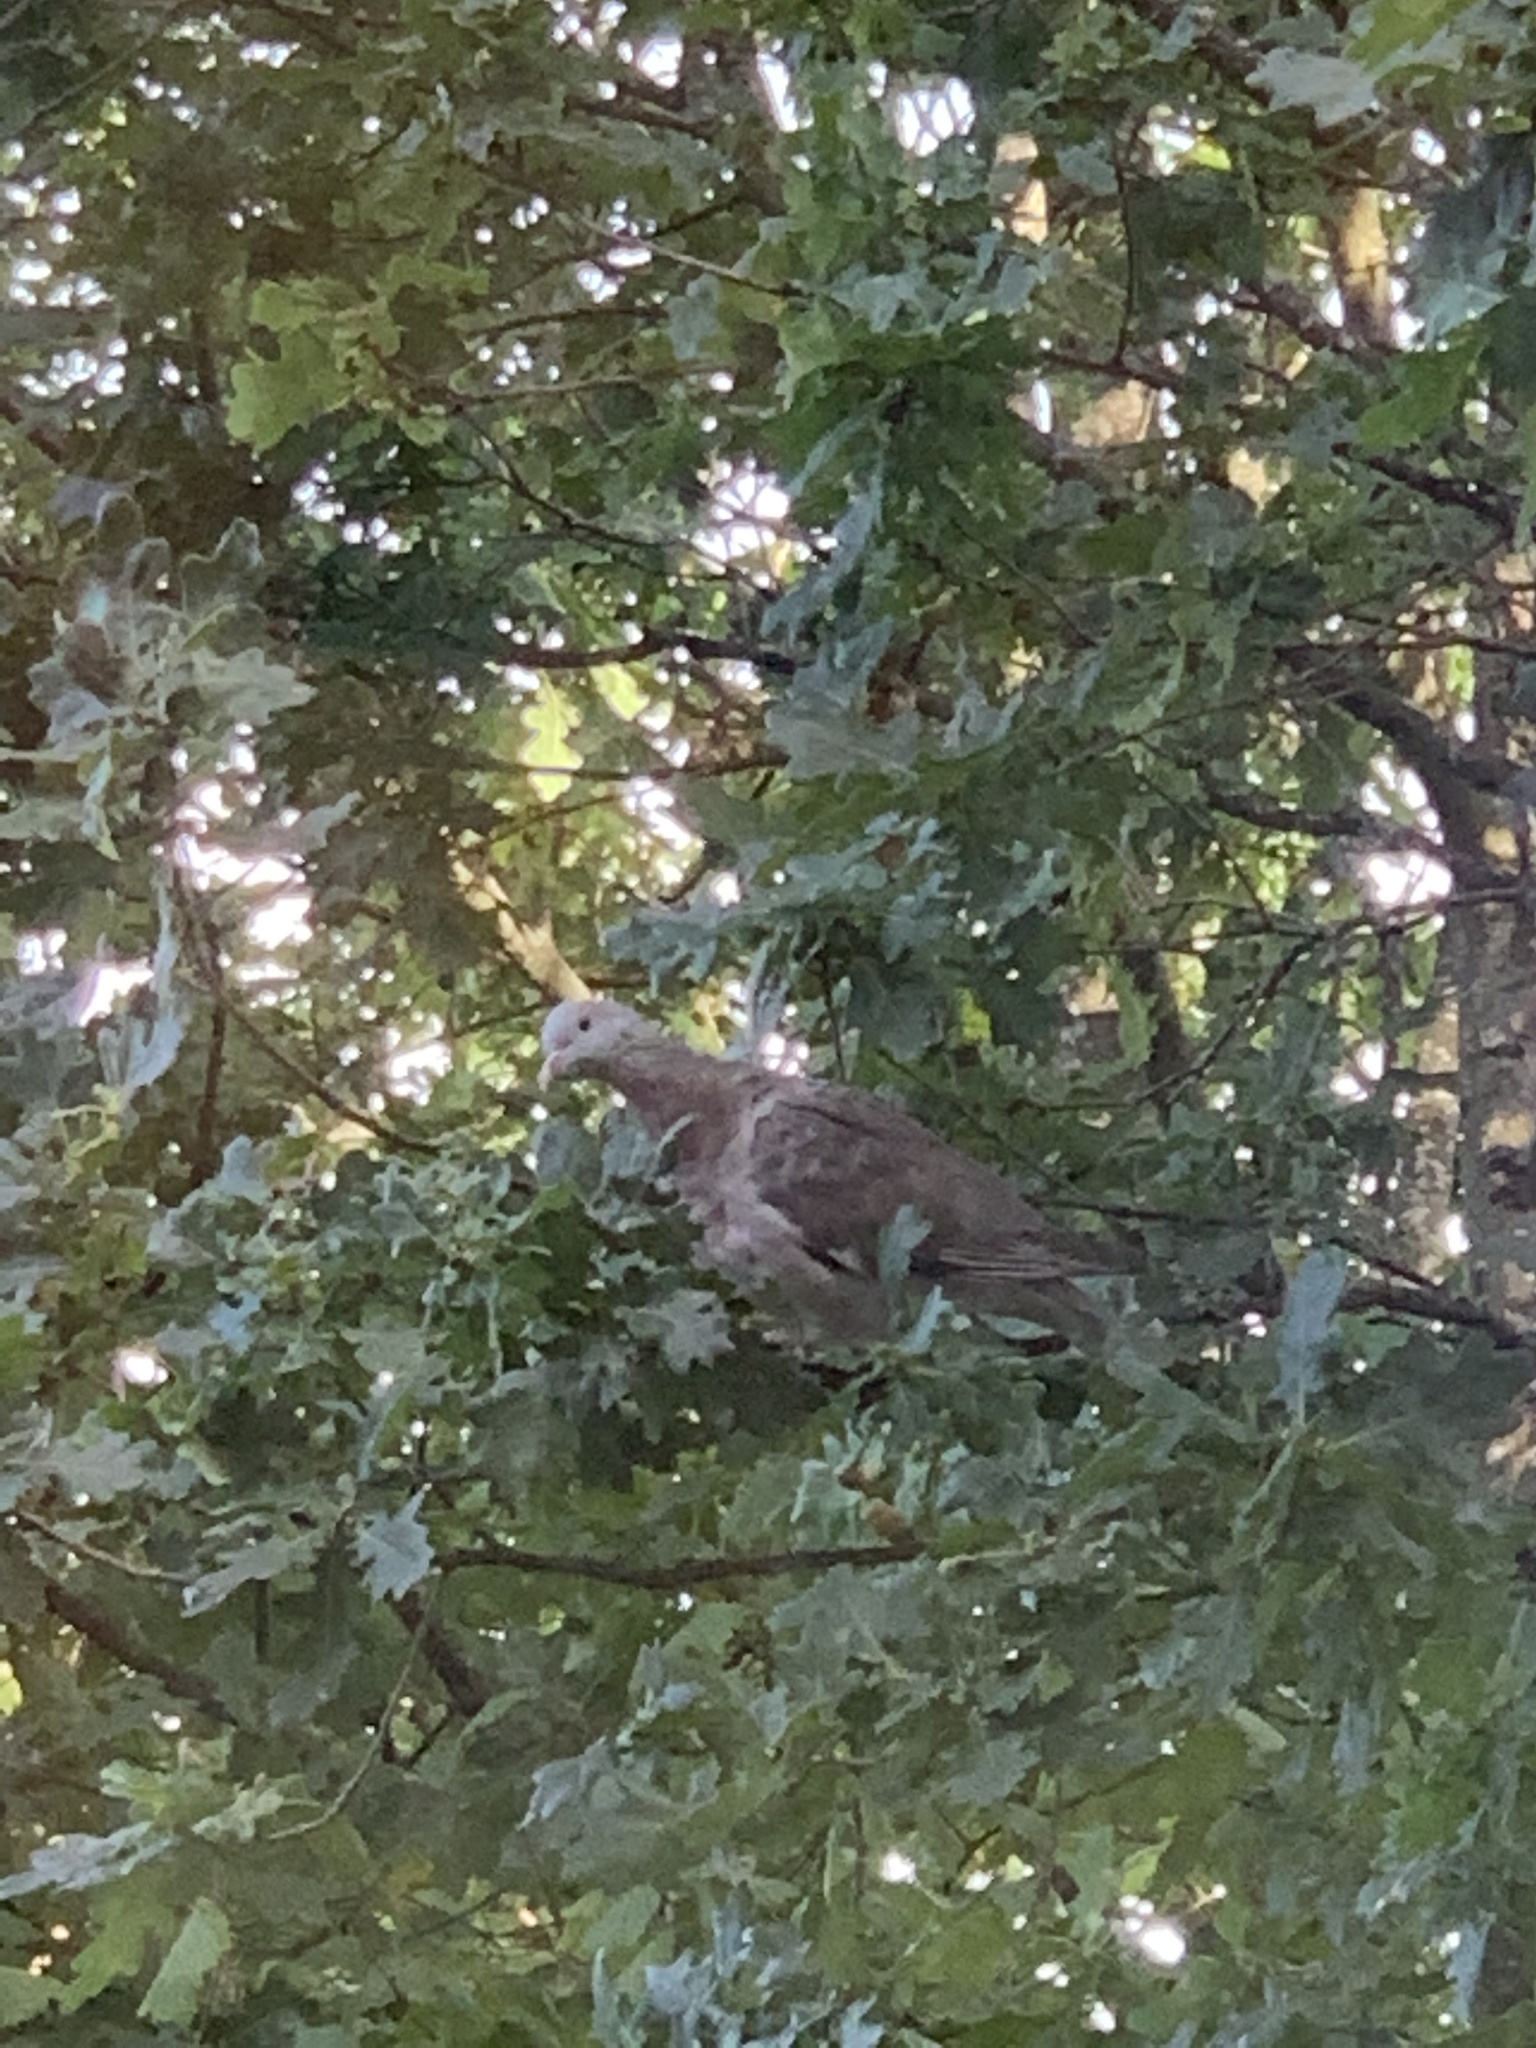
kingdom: Animalia
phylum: Chordata
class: Aves
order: Columbiformes
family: Columbidae
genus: Columba
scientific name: Columba palumbus
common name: Common wood pigeon
